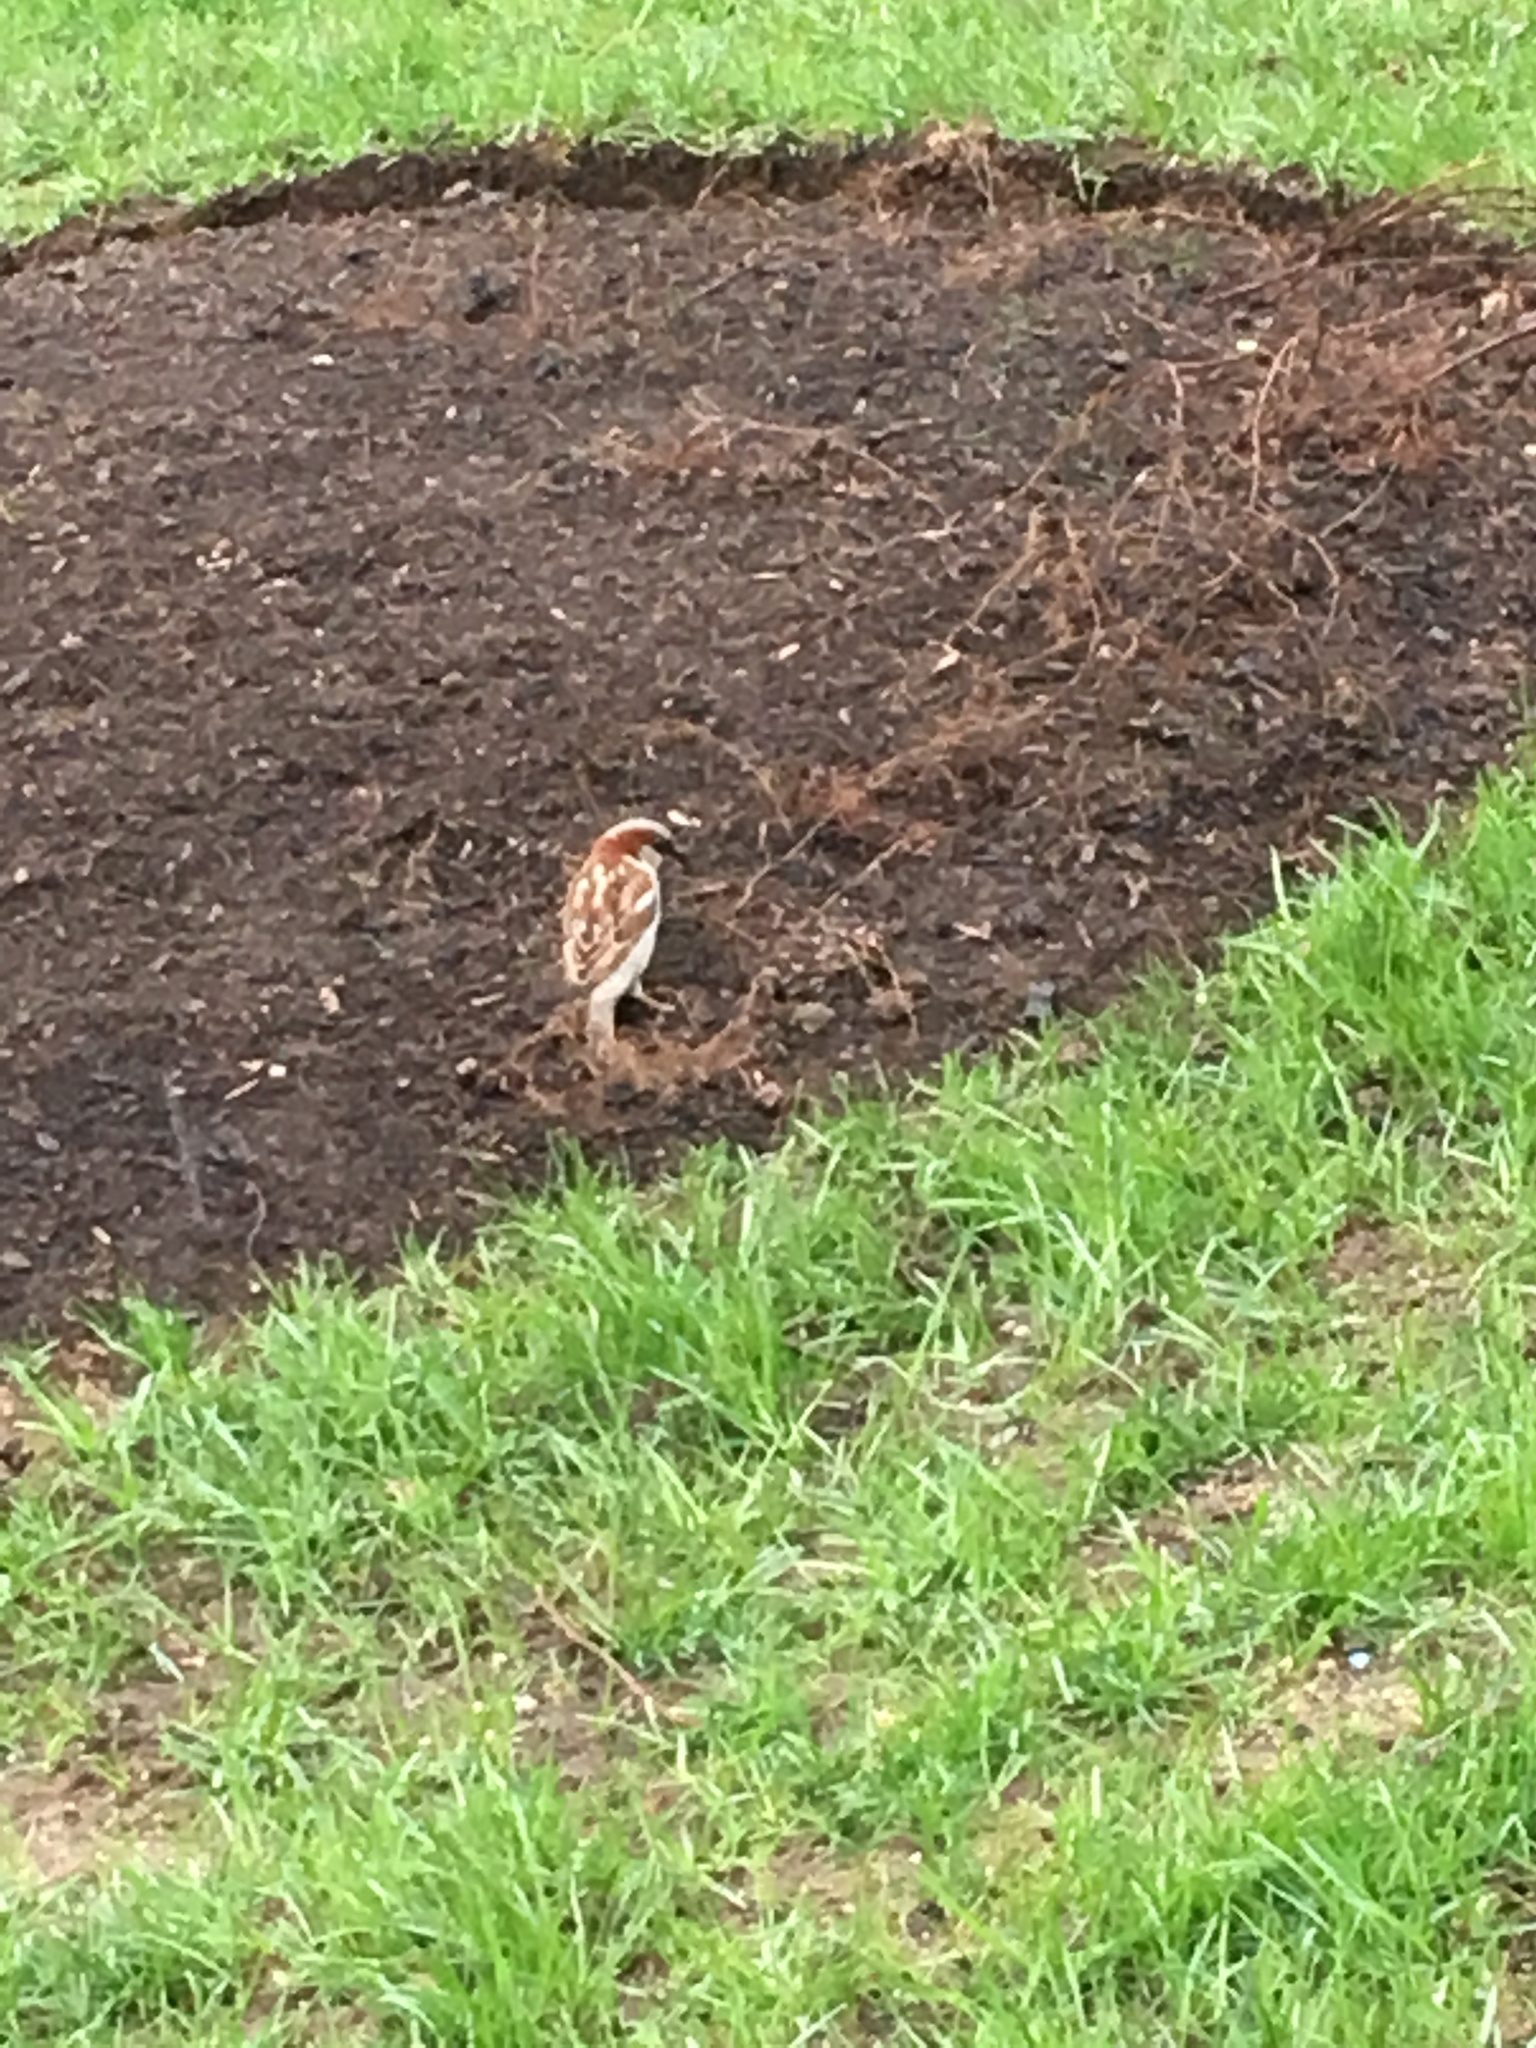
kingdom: Animalia
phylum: Chordata
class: Aves
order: Passeriformes
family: Passeridae
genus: Passer
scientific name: Passer domesticus
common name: House sparrow
